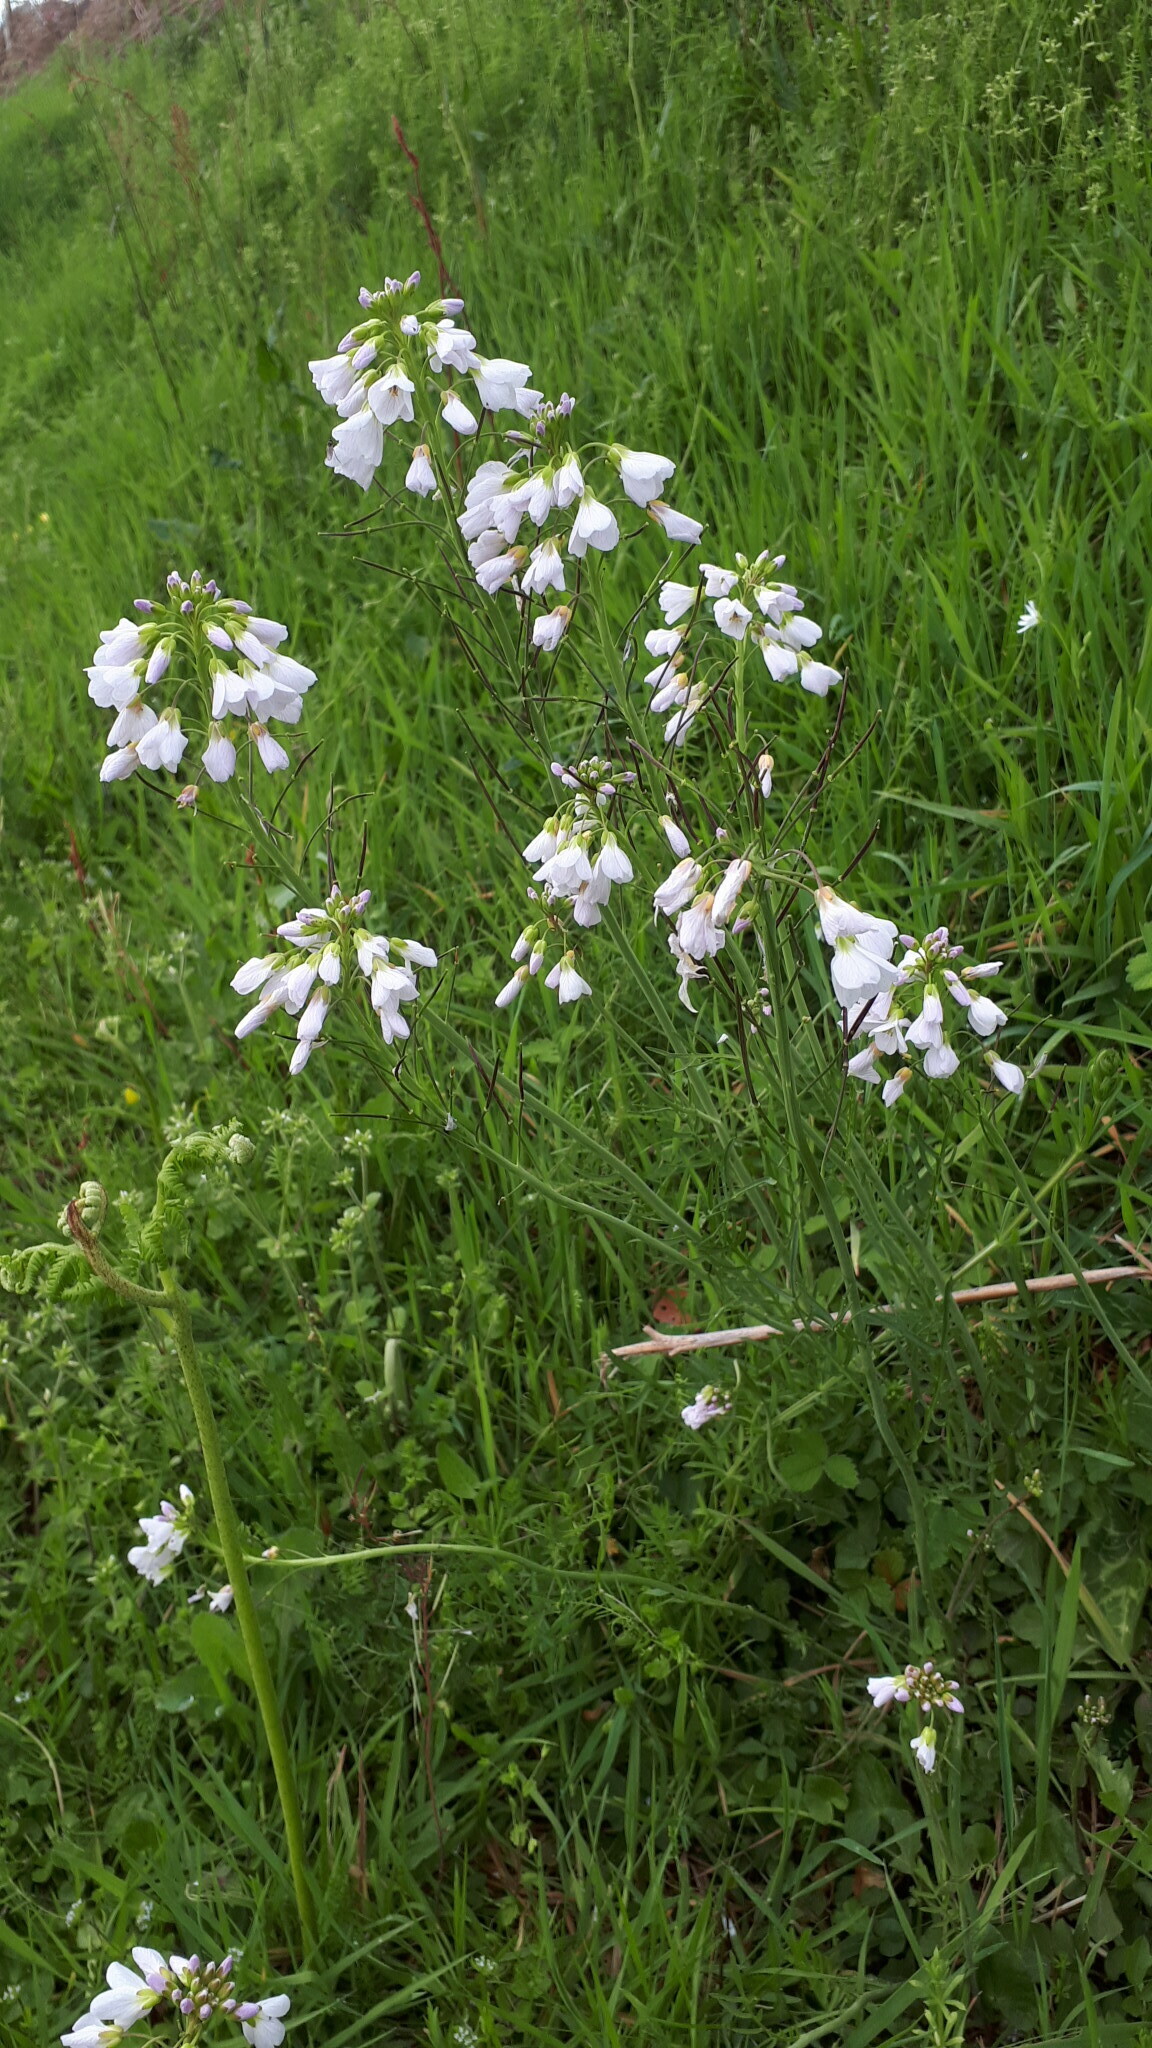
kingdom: Plantae
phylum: Tracheophyta
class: Magnoliopsida
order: Brassicales
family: Brassicaceae
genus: Cardamine
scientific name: Cardamine pratensis
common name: Cuckoo flower
